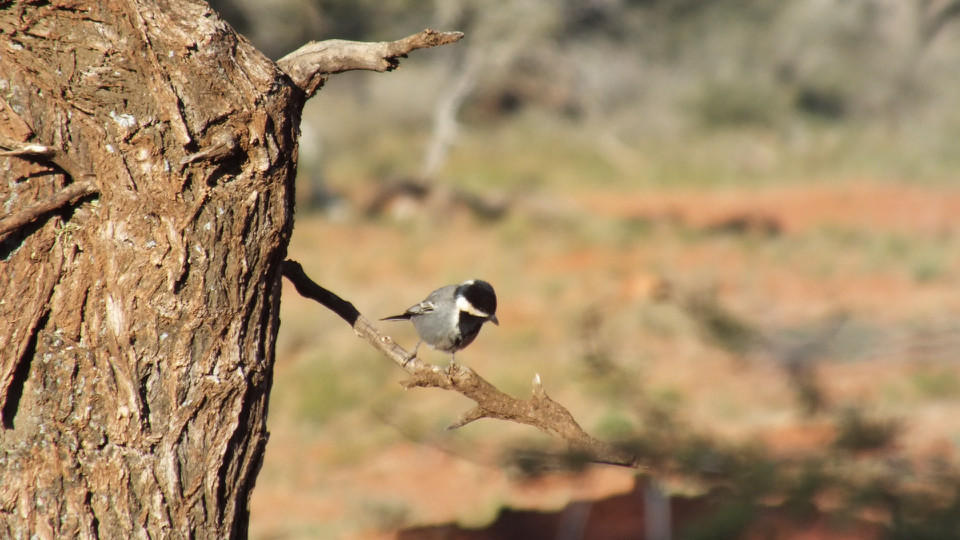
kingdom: Animalia
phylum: Chordata
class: Aves
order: Passeriformes
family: Paridae
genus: Parus
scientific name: Parus cinerascens
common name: Ashy tit
